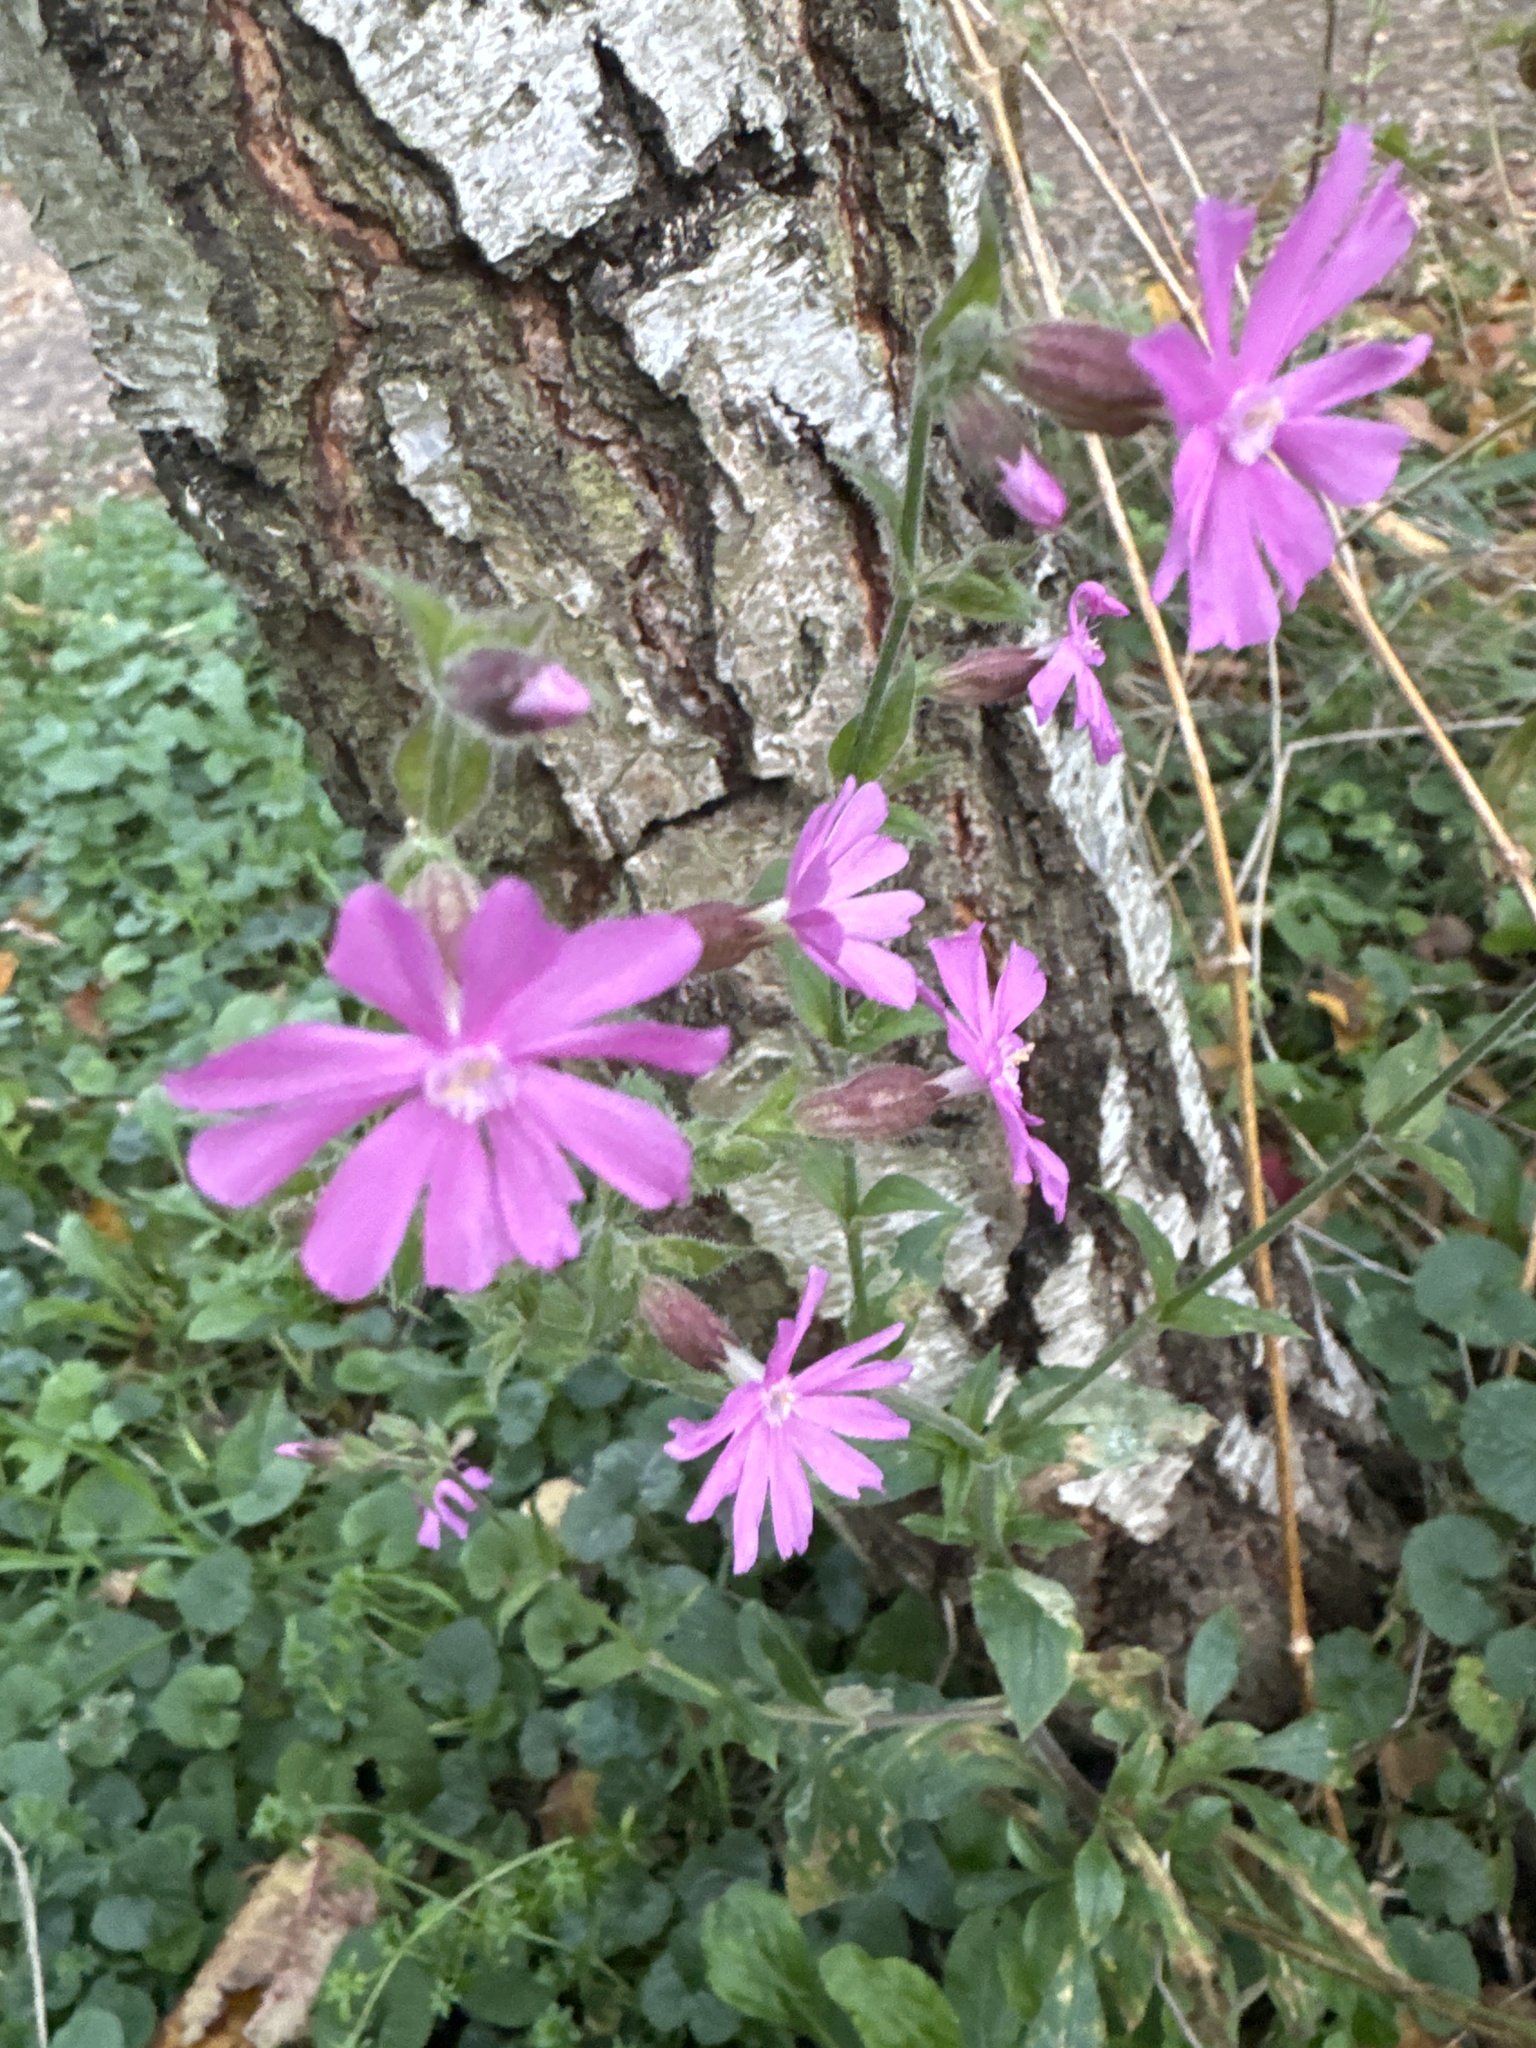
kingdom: Plantae
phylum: Tracheophyta
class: Magnoliopsida
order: Caryophyllales
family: Caryophyllaceae
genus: Silene
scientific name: Silene dioica
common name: Red campion
